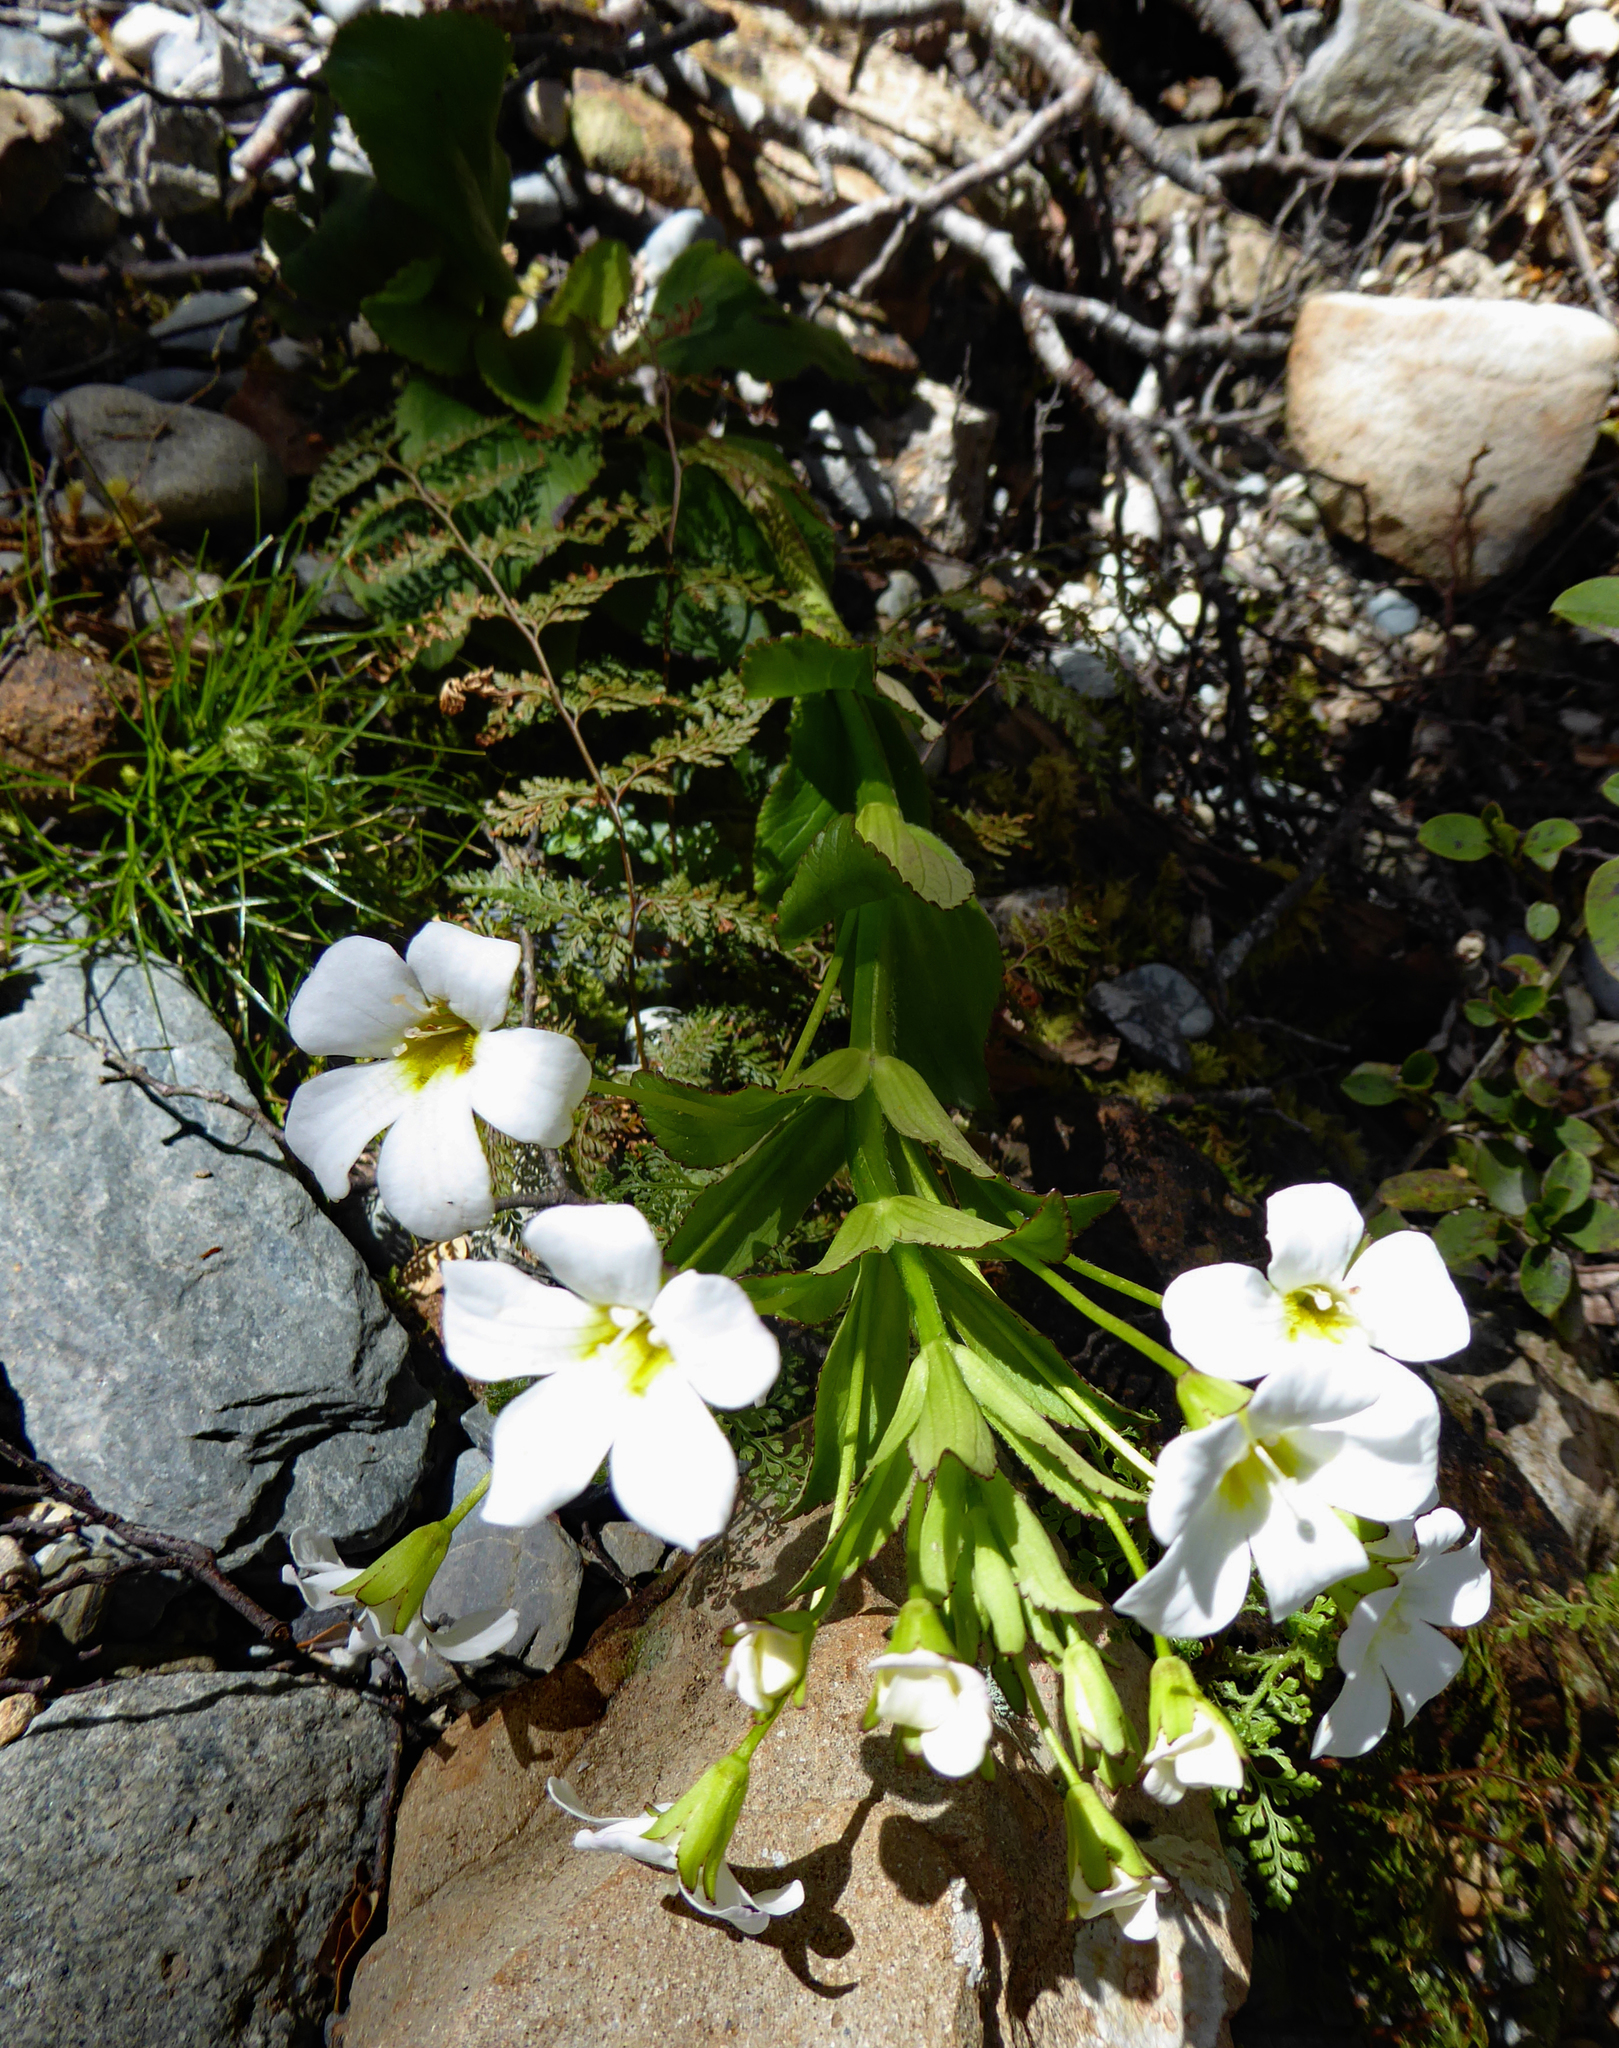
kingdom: Plantae
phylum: Tracheophyta
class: Magnoliopsida
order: Lamiales
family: Plantaginaceae
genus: Ourisia
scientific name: Ourisia calycina
